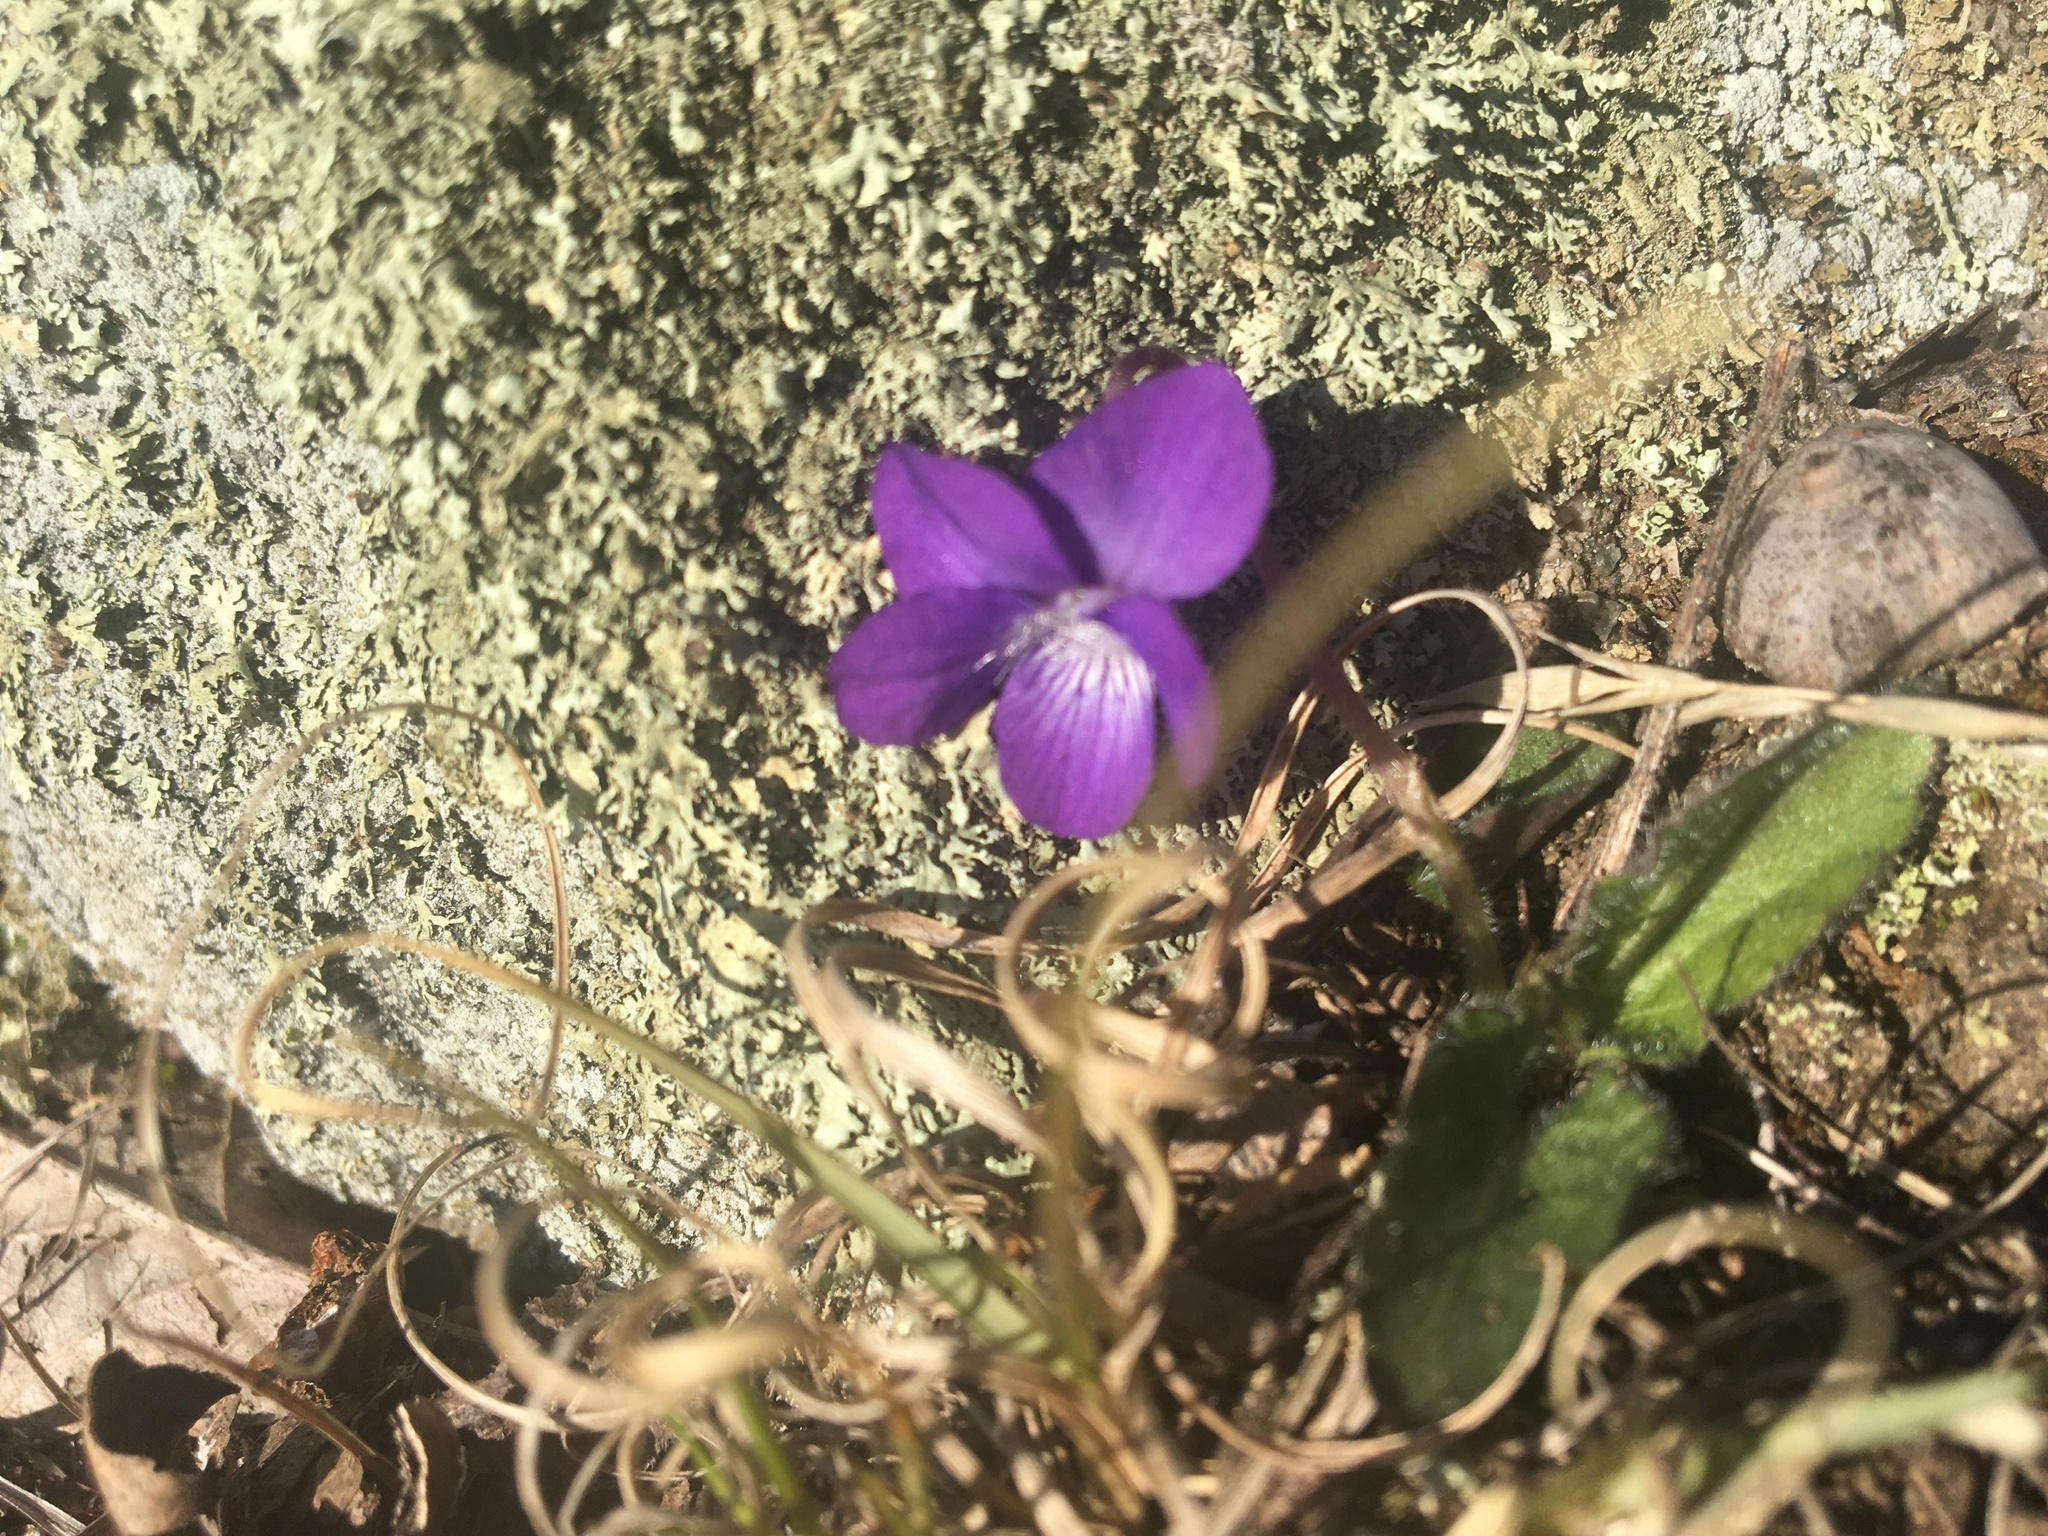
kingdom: Plantae
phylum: Tracheophyta
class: Magnoliopsida
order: Malpighiales
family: Violaceae
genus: Viola
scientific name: Viola sagittata
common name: Arrowhead violet
